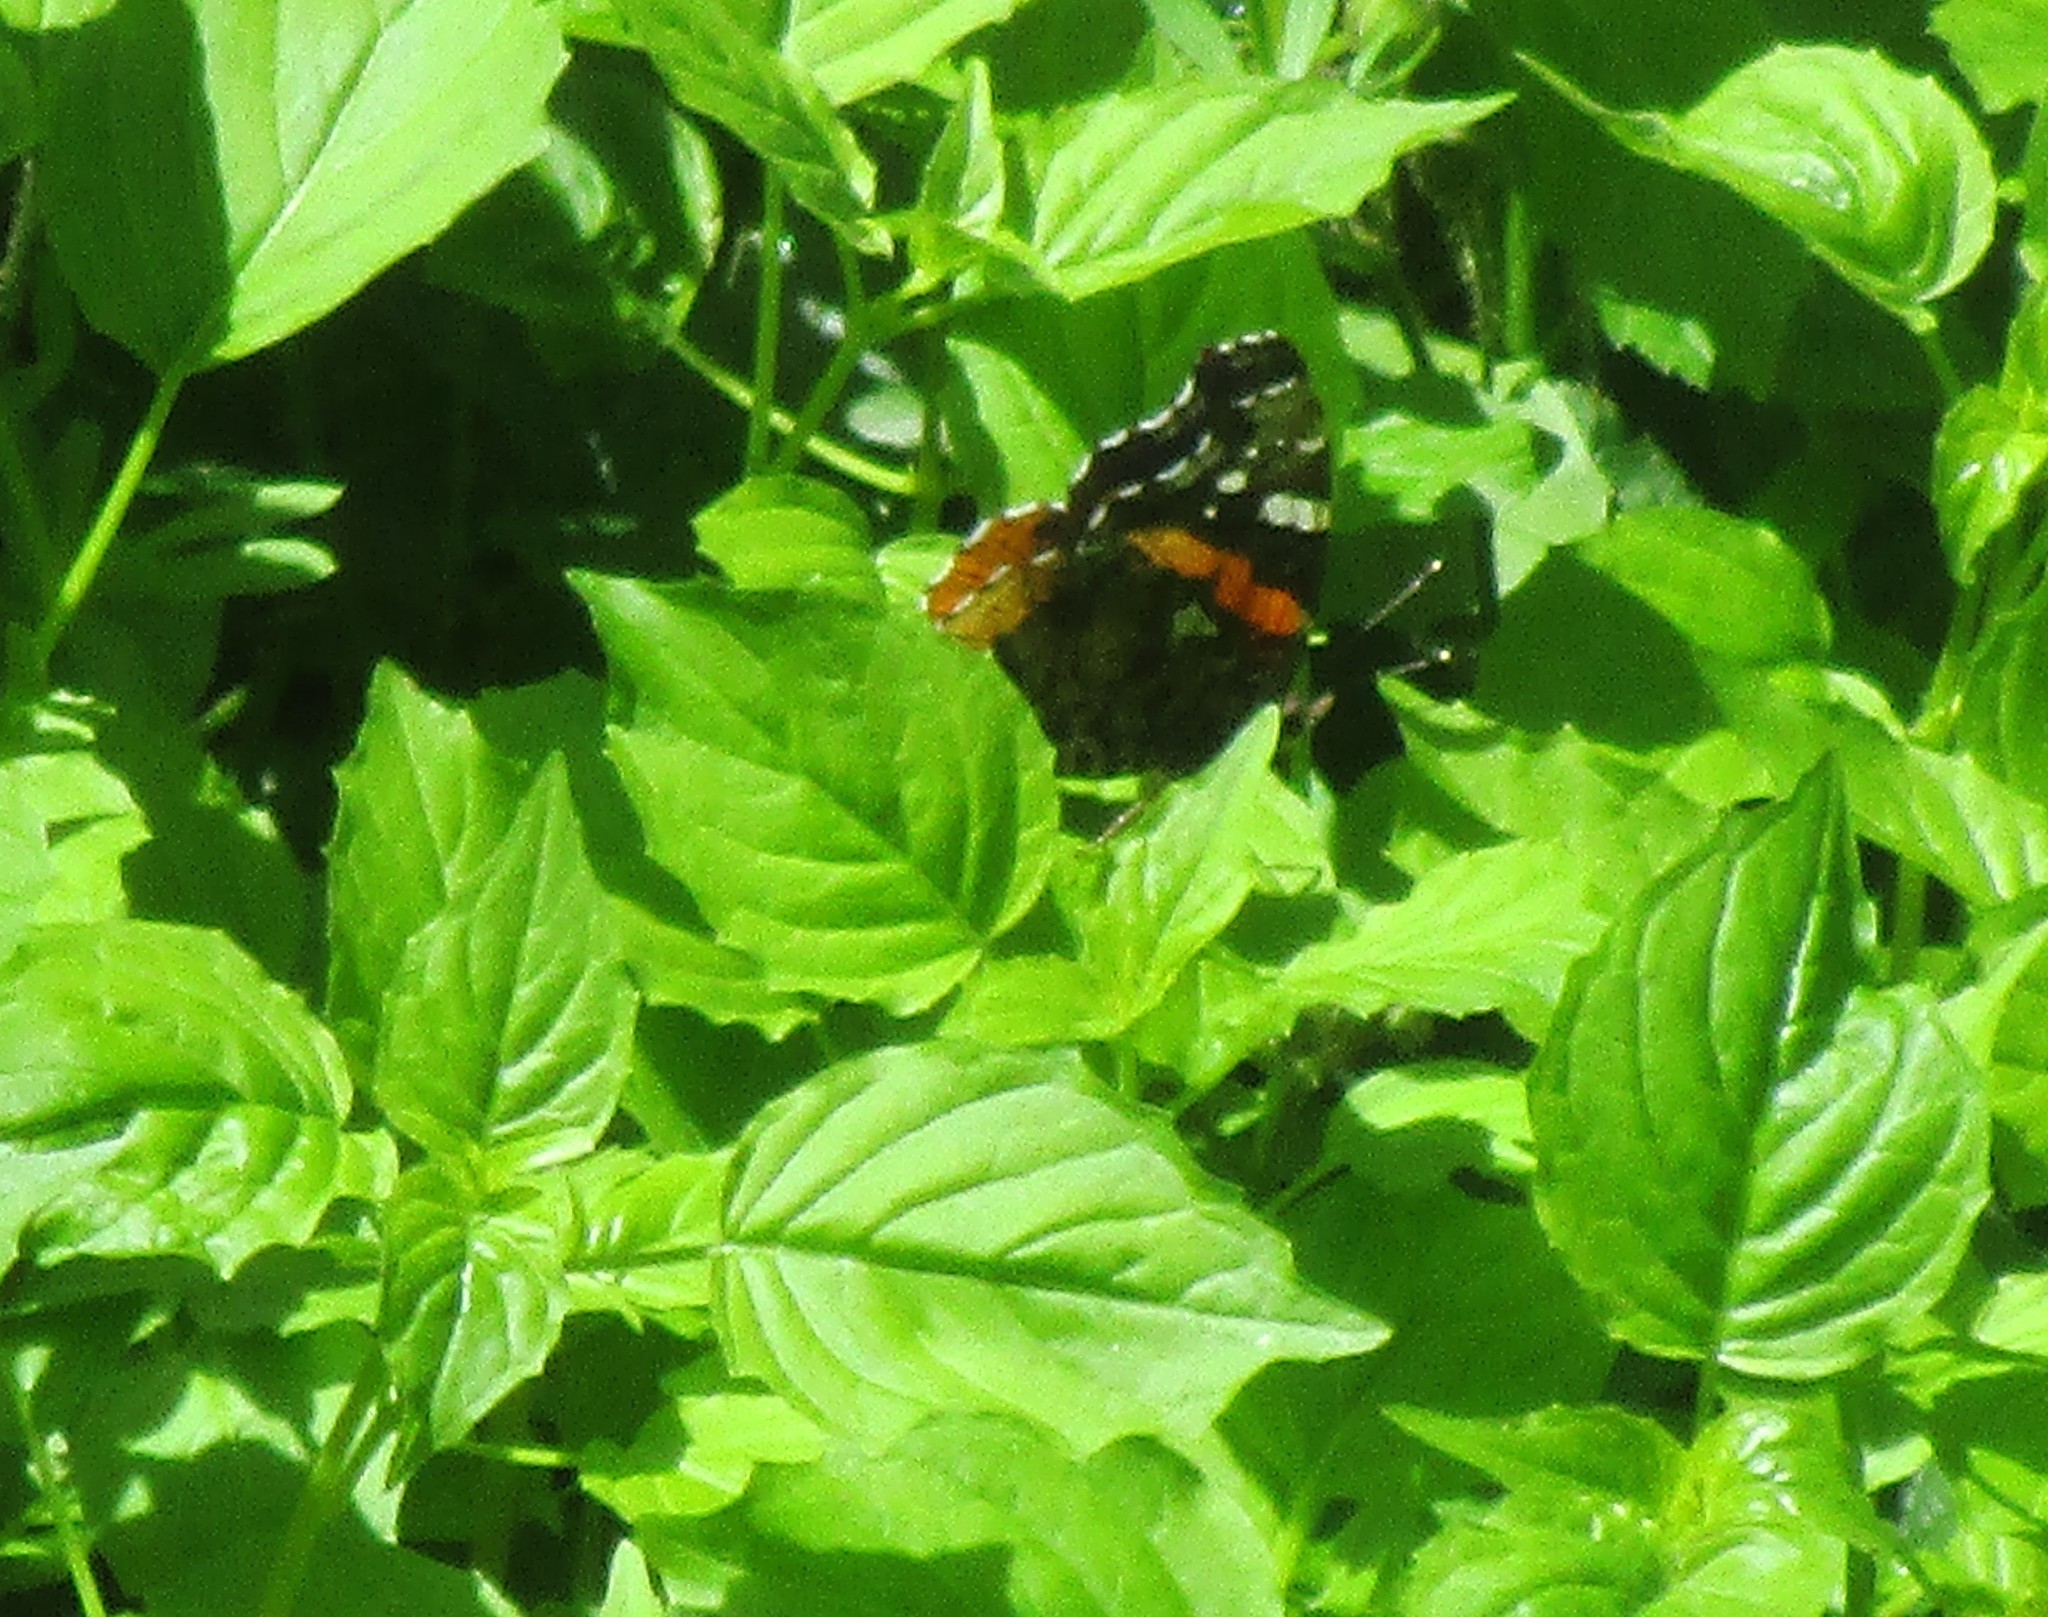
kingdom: Animalia
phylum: Arthropoda
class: Insecta
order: Lepidoptera
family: Nymphalidae
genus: Vanessa
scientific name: Vanessa atalanta
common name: Red admiral
